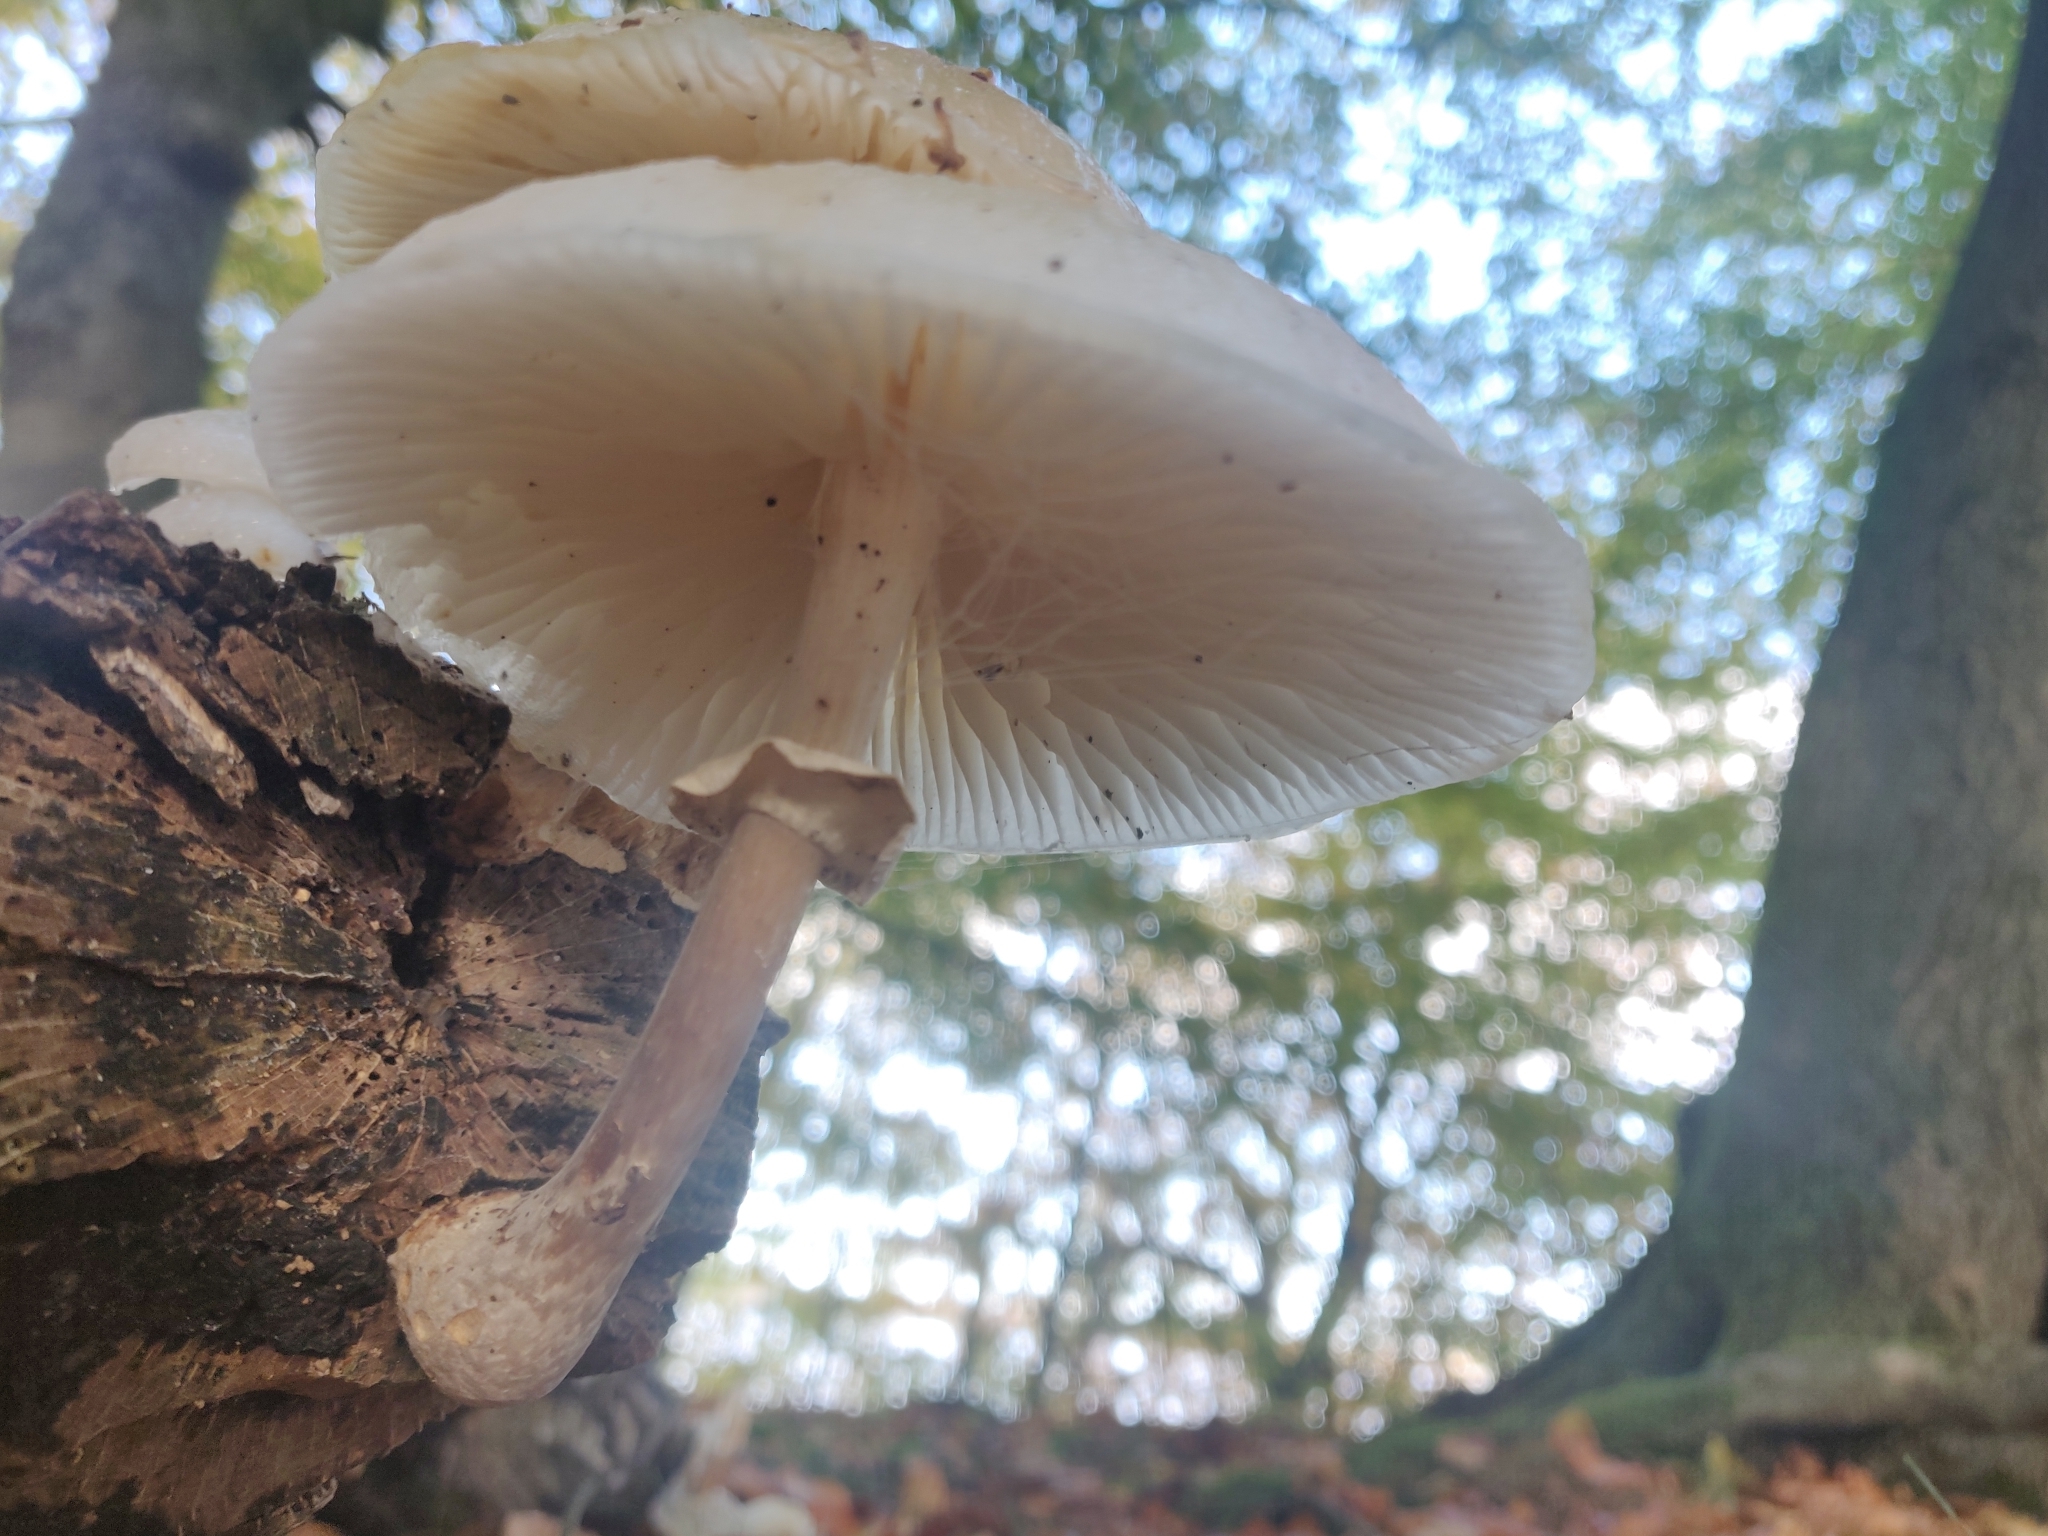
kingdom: Fungi
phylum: Basidiomycota
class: Agaricomycetes
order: Agaricales
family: Physalacriaceae
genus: Mucidula
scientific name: Mucidula mucida
